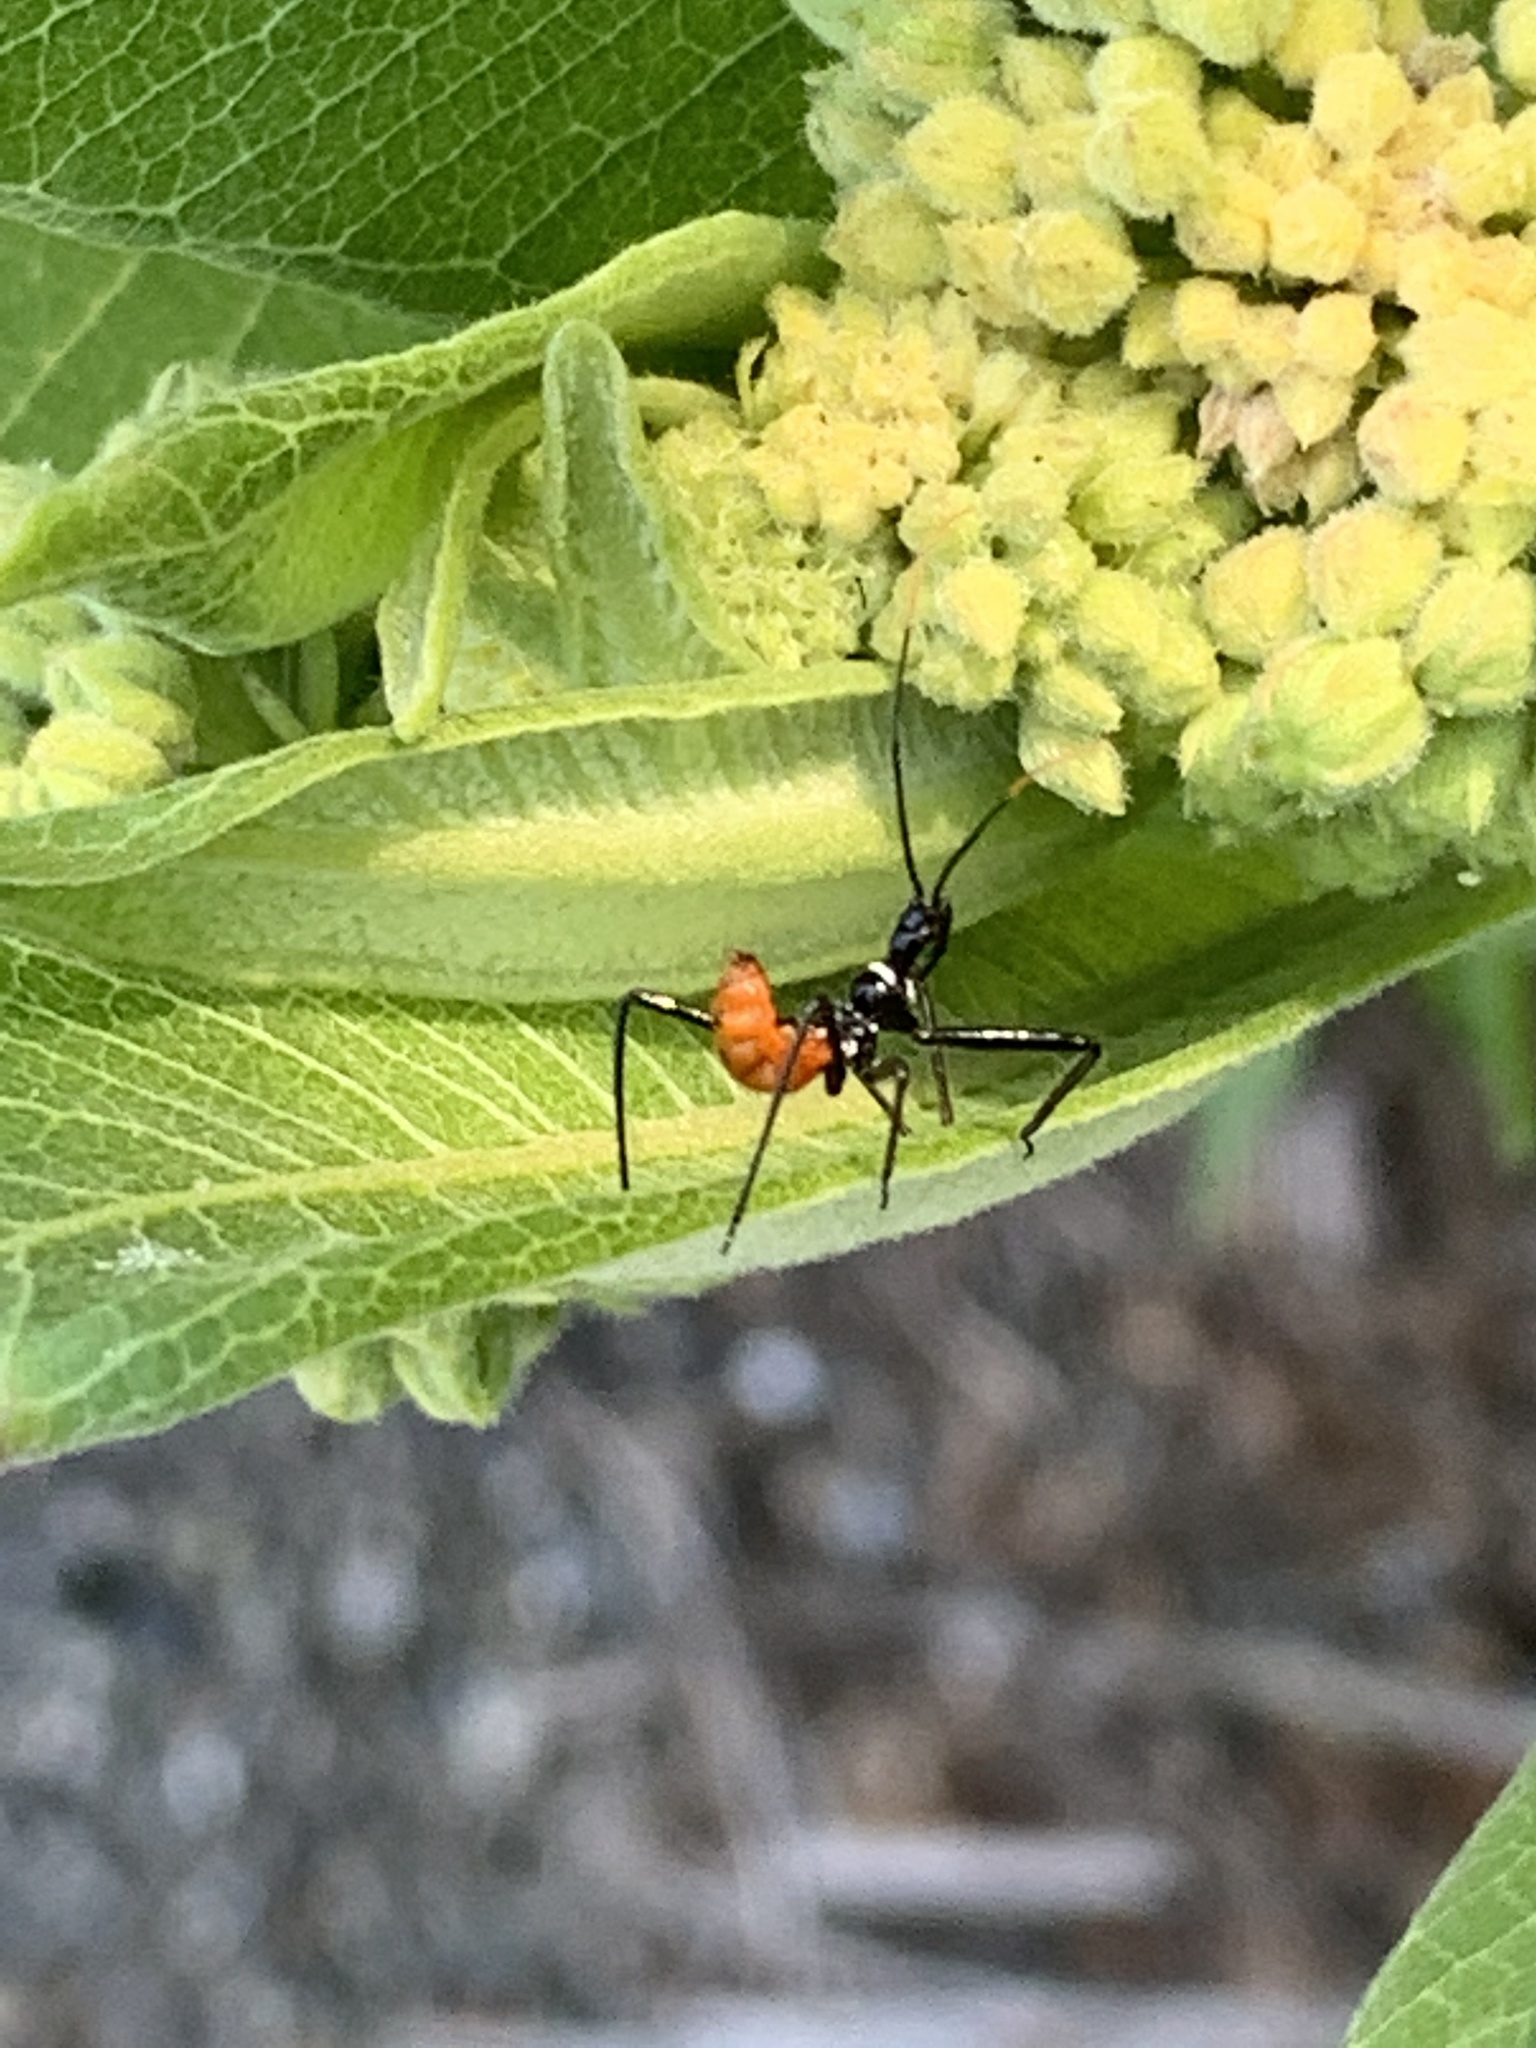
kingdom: Animalia
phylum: Arthropoda
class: Insecta
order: Hemiptera
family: Reduviidae
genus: Arilus
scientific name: Arilus cristatus
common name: North american wheel bug
